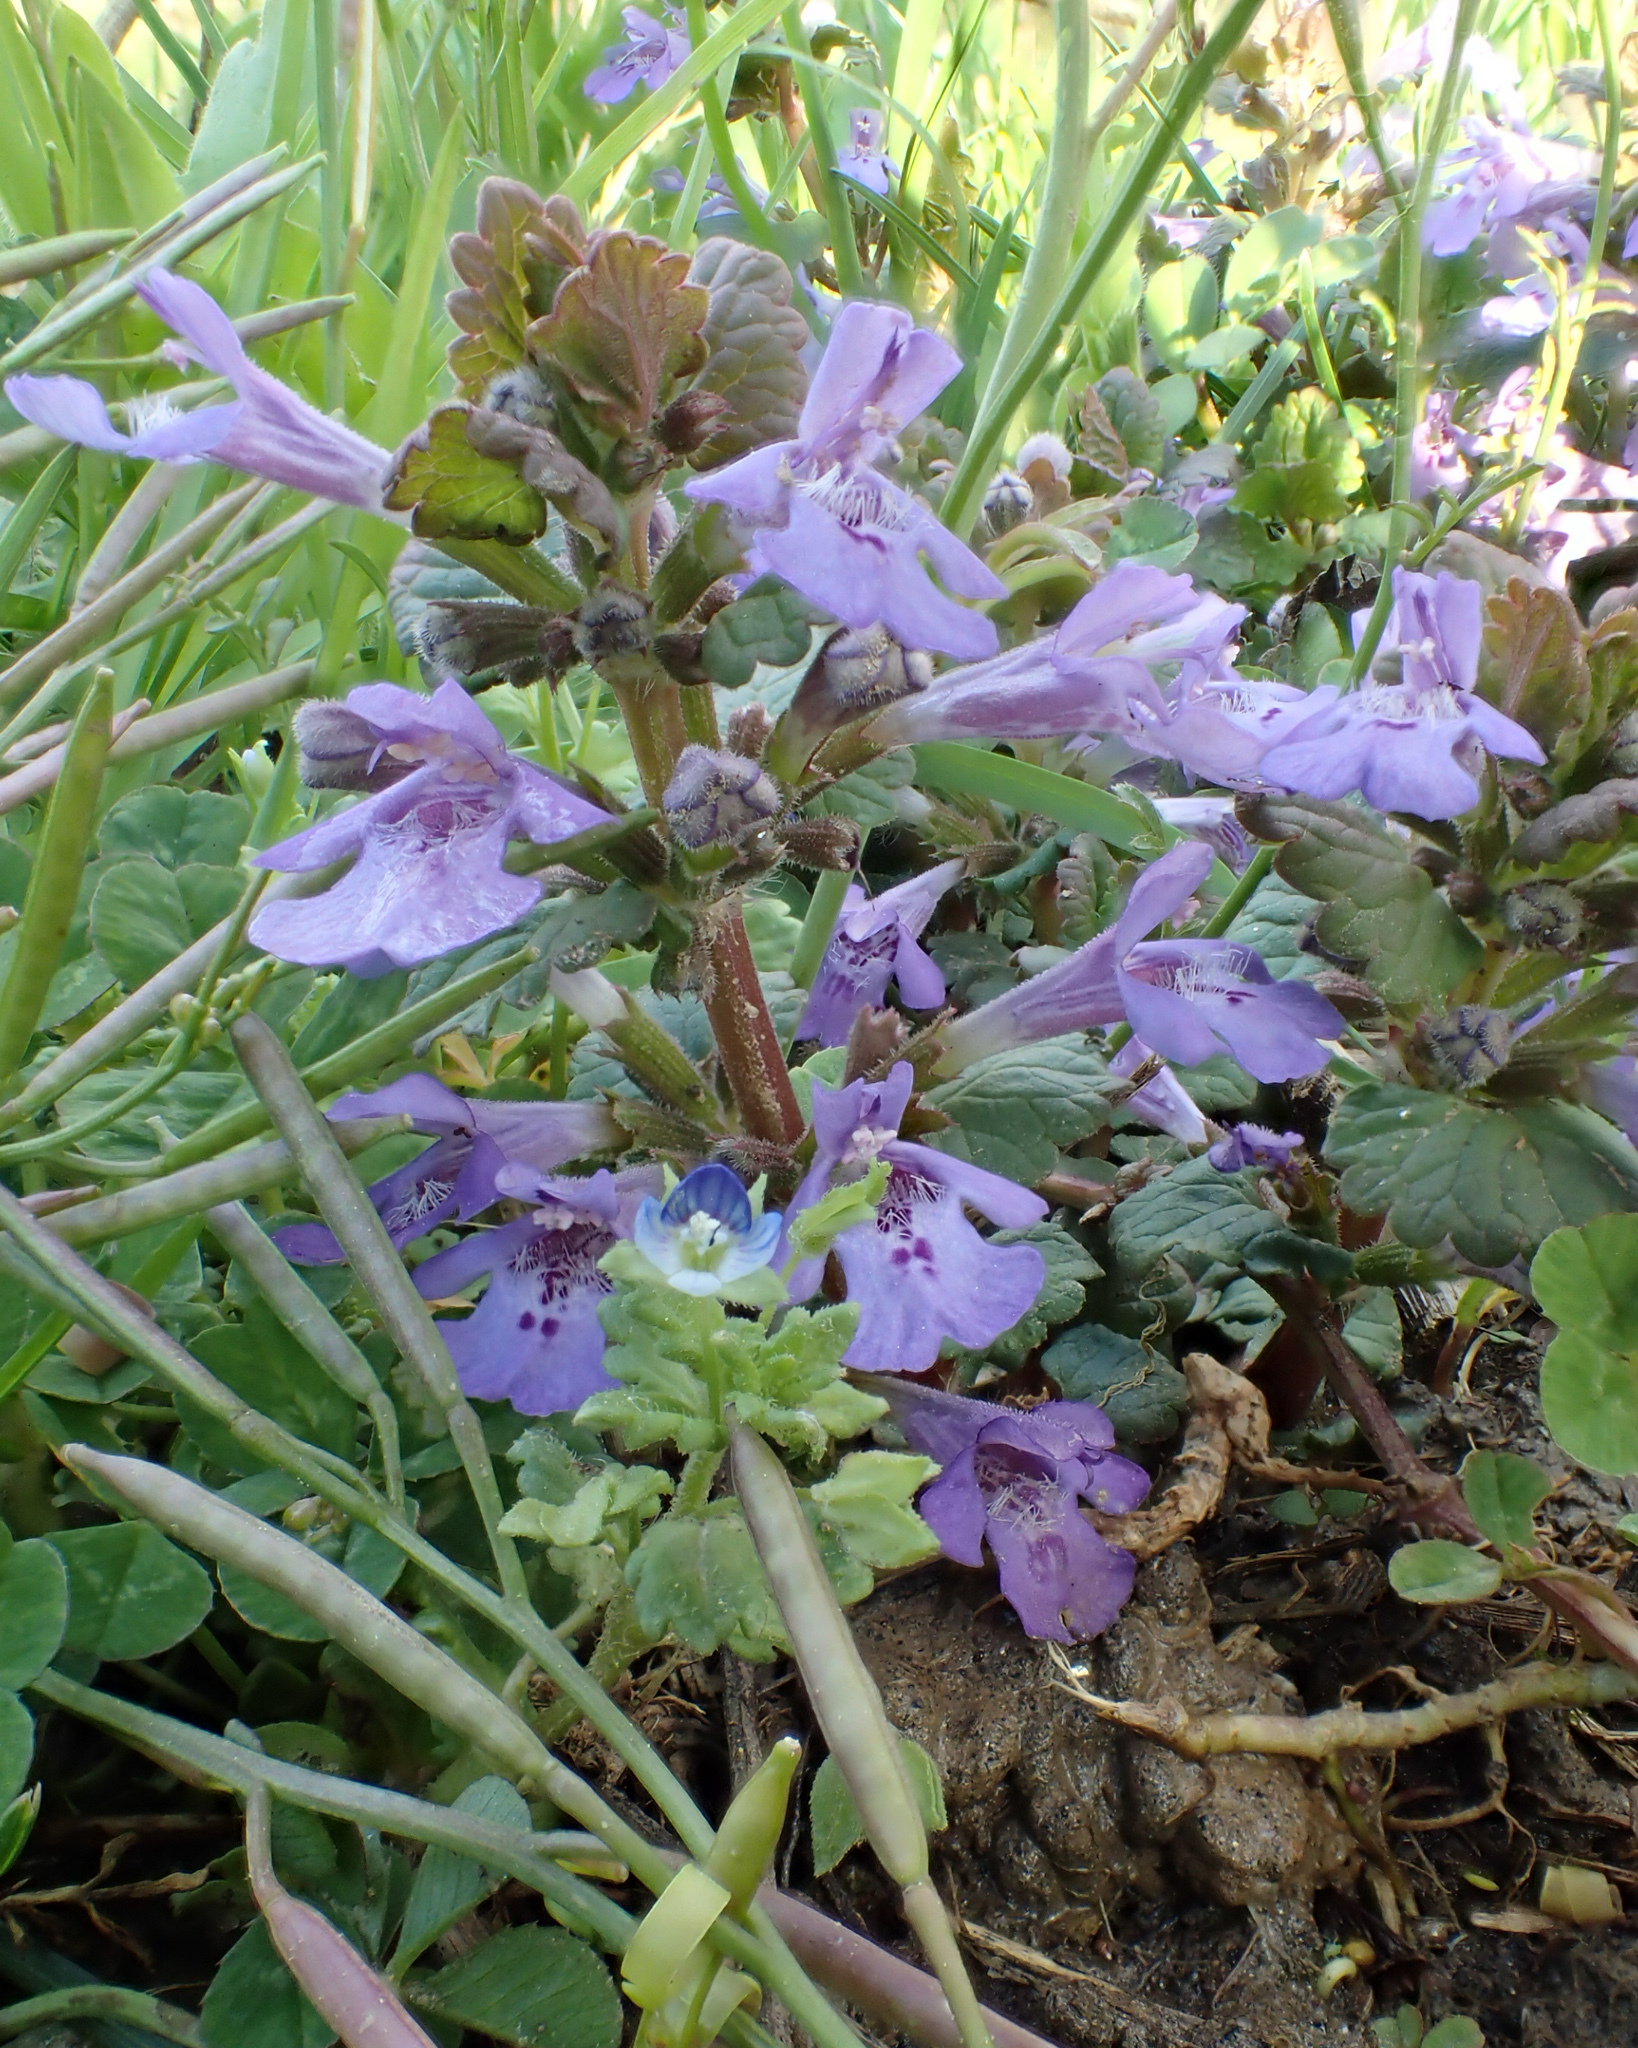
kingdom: Plantae
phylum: Tracheophyta
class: Magnoliopsida
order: Lamiales
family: Lamiaceae
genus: Glechoma
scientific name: Glechoma hederacea
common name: Ground ivy
